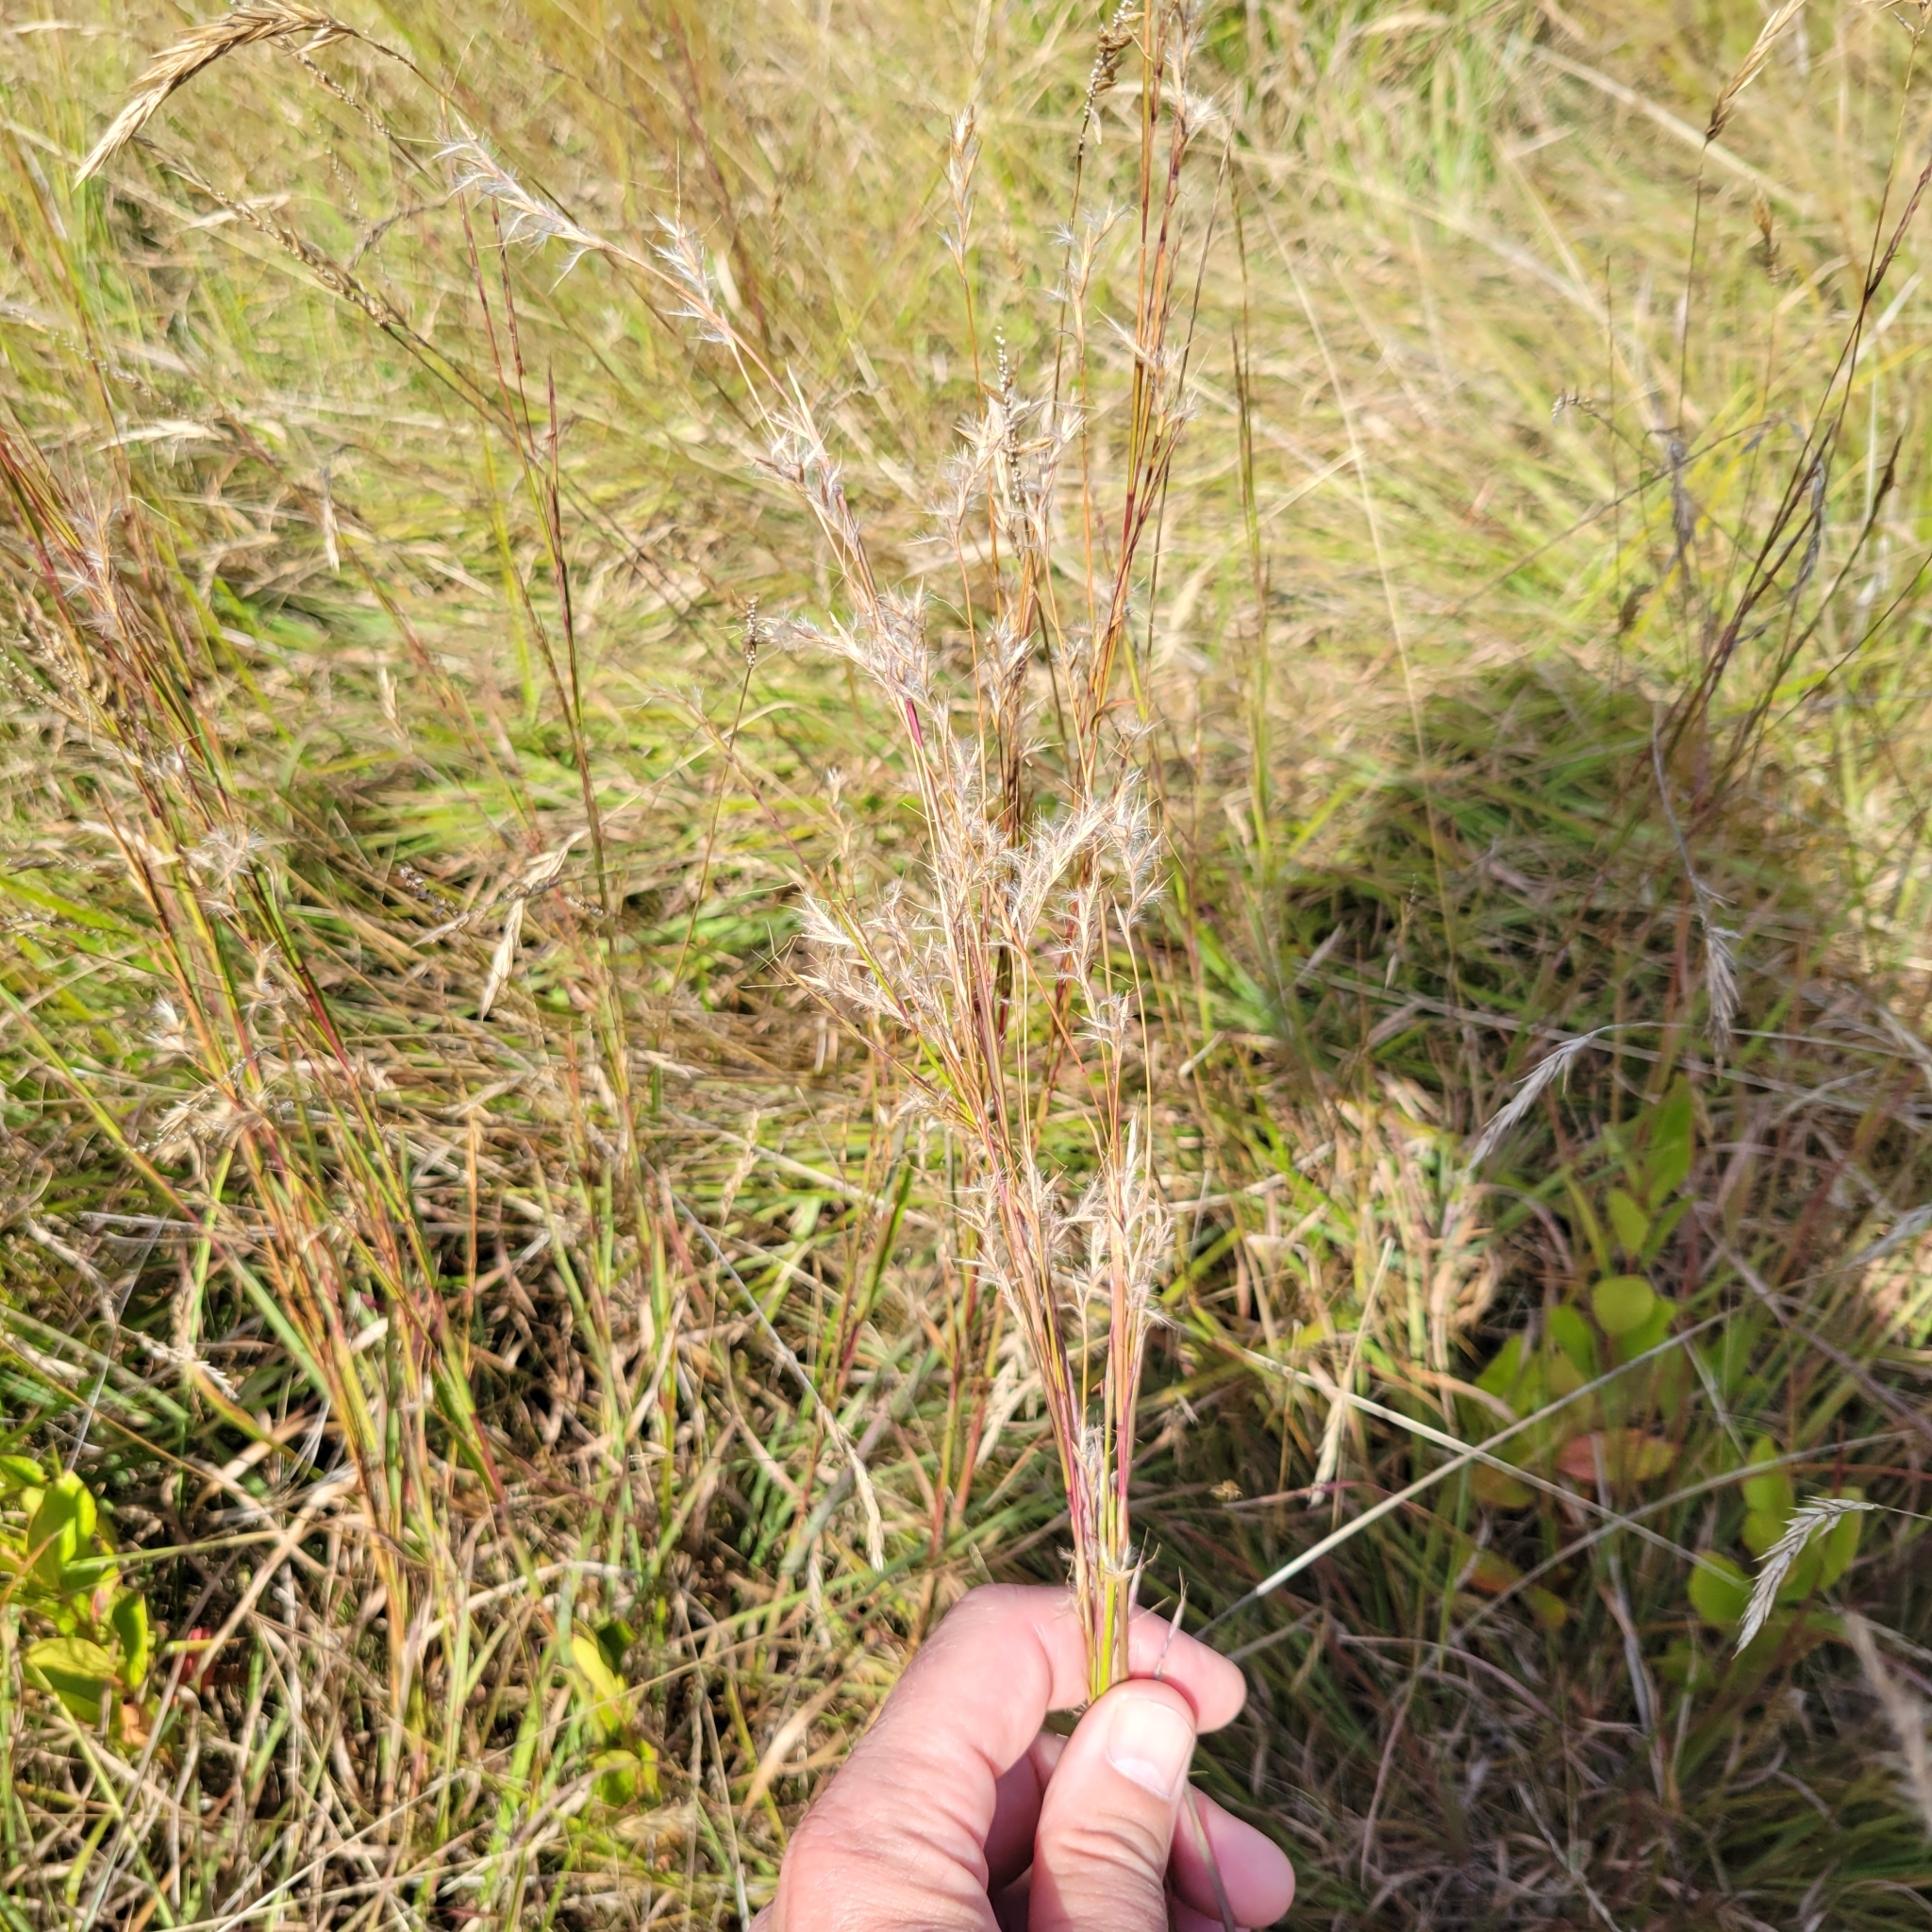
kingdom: Plantae
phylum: Tracheophyta
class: Liliopsida
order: Poales
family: Poaceae
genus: Schizachyrium
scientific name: Schizachyrium scoparium
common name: Little bluestem
